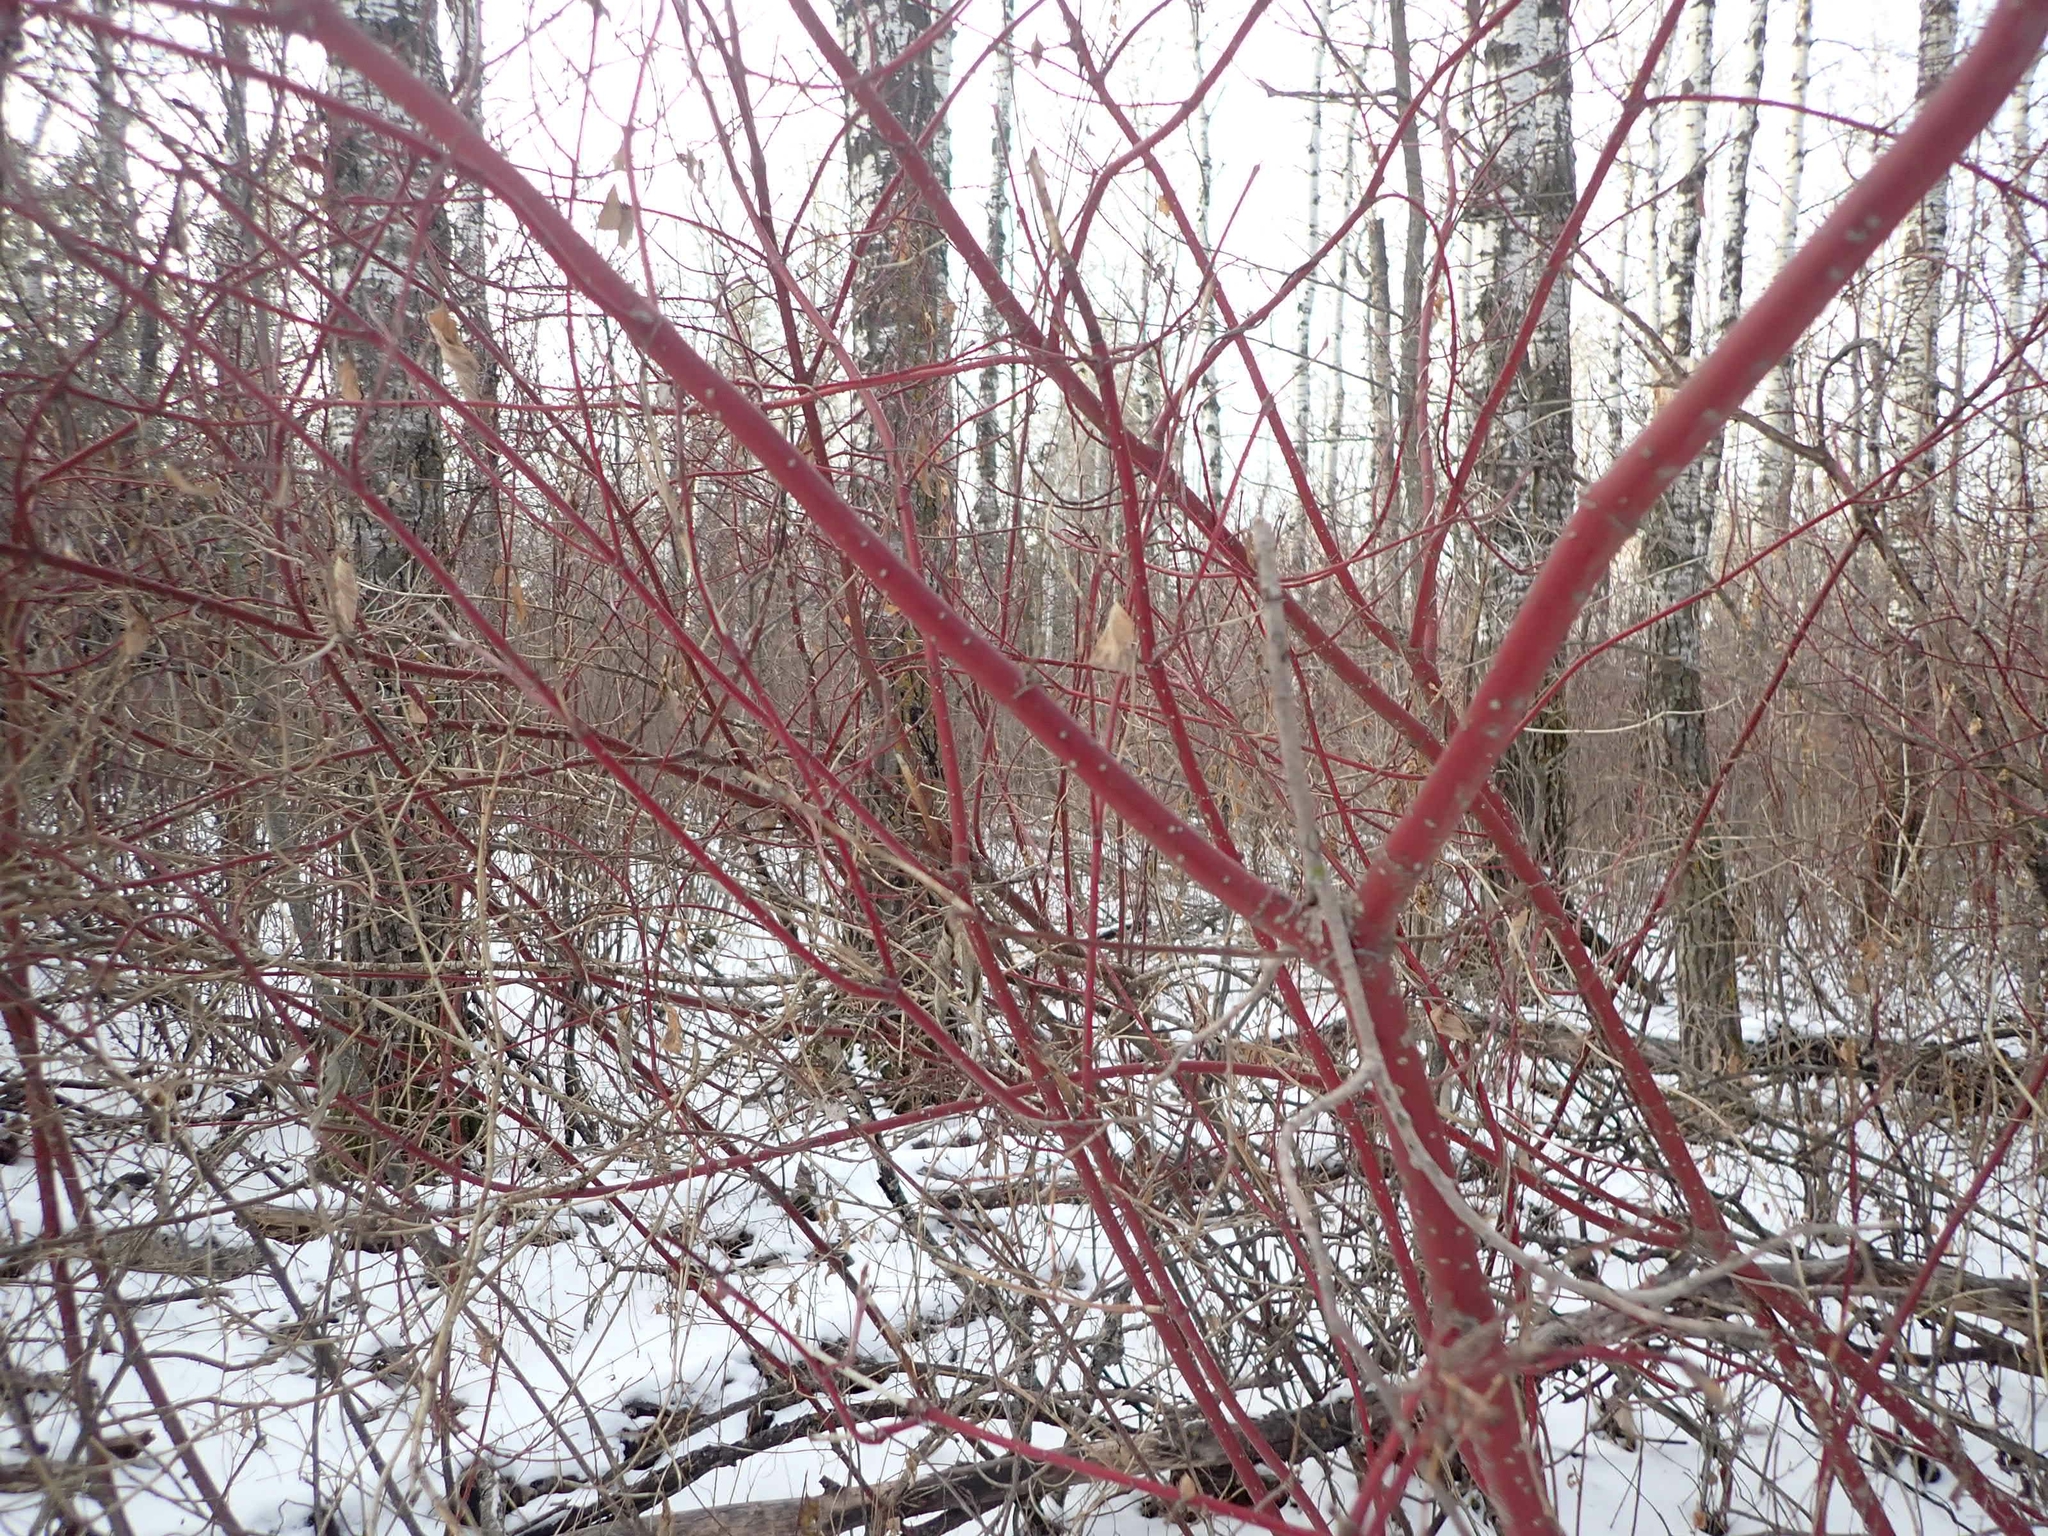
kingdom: Plantae
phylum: Tracheophyta
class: Magnoliopsida
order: Cornales
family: Cornaceae
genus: Cornus
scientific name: Cornus sericea
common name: Red-osier dogwood
